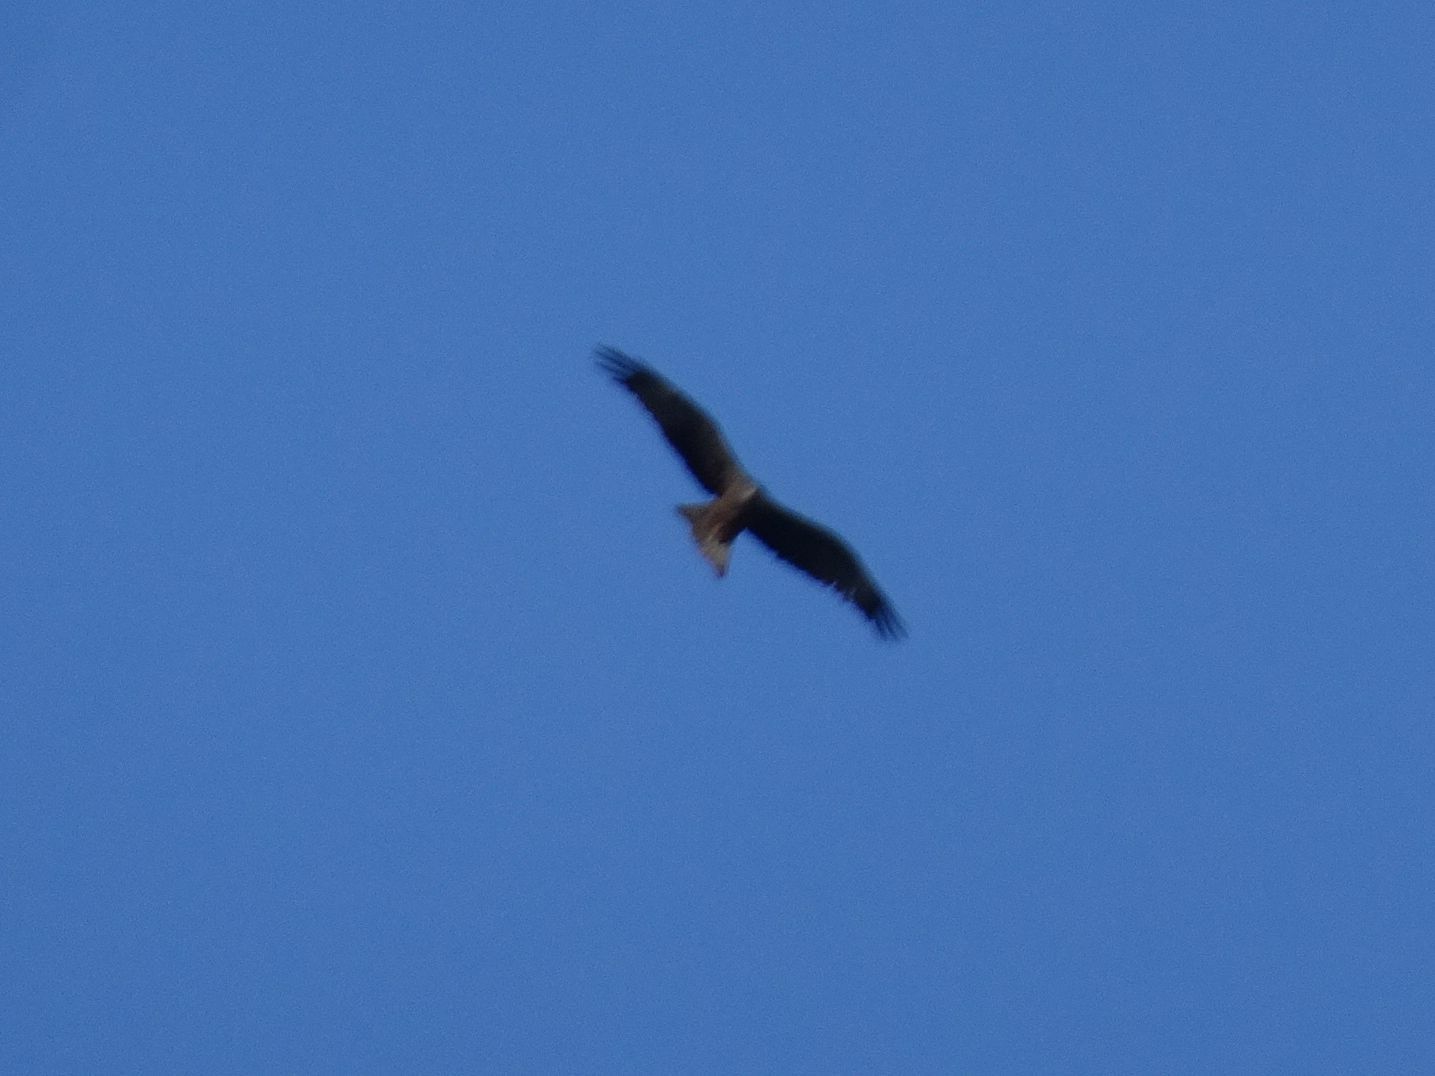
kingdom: Animalia
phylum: Chordata
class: Aves
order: Accipitriformes
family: Accipitridae
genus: Milvus
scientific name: Milvus migrans
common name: Black kite
